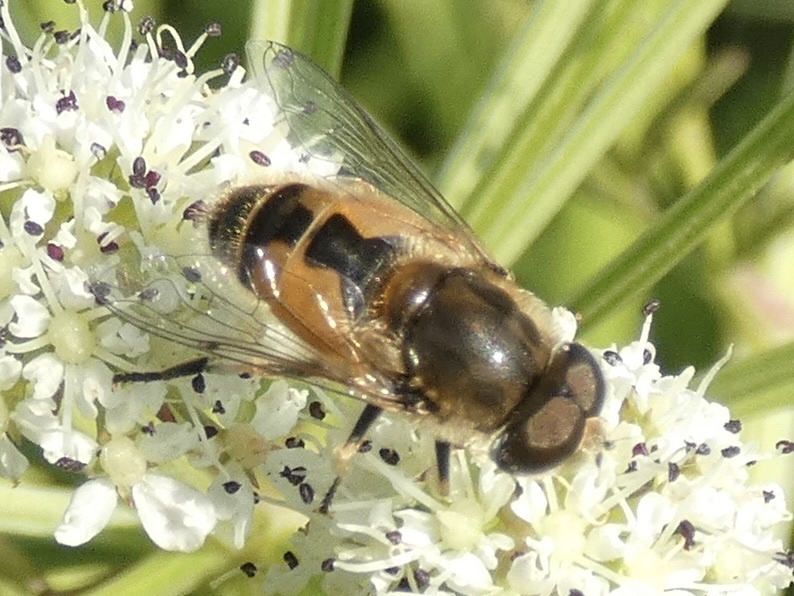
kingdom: Animalia
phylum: Arthropoda
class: Insecta
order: Diptera
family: Syrphidae
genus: Eristalis
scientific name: Eristalis arbustorum
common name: Hover fly
